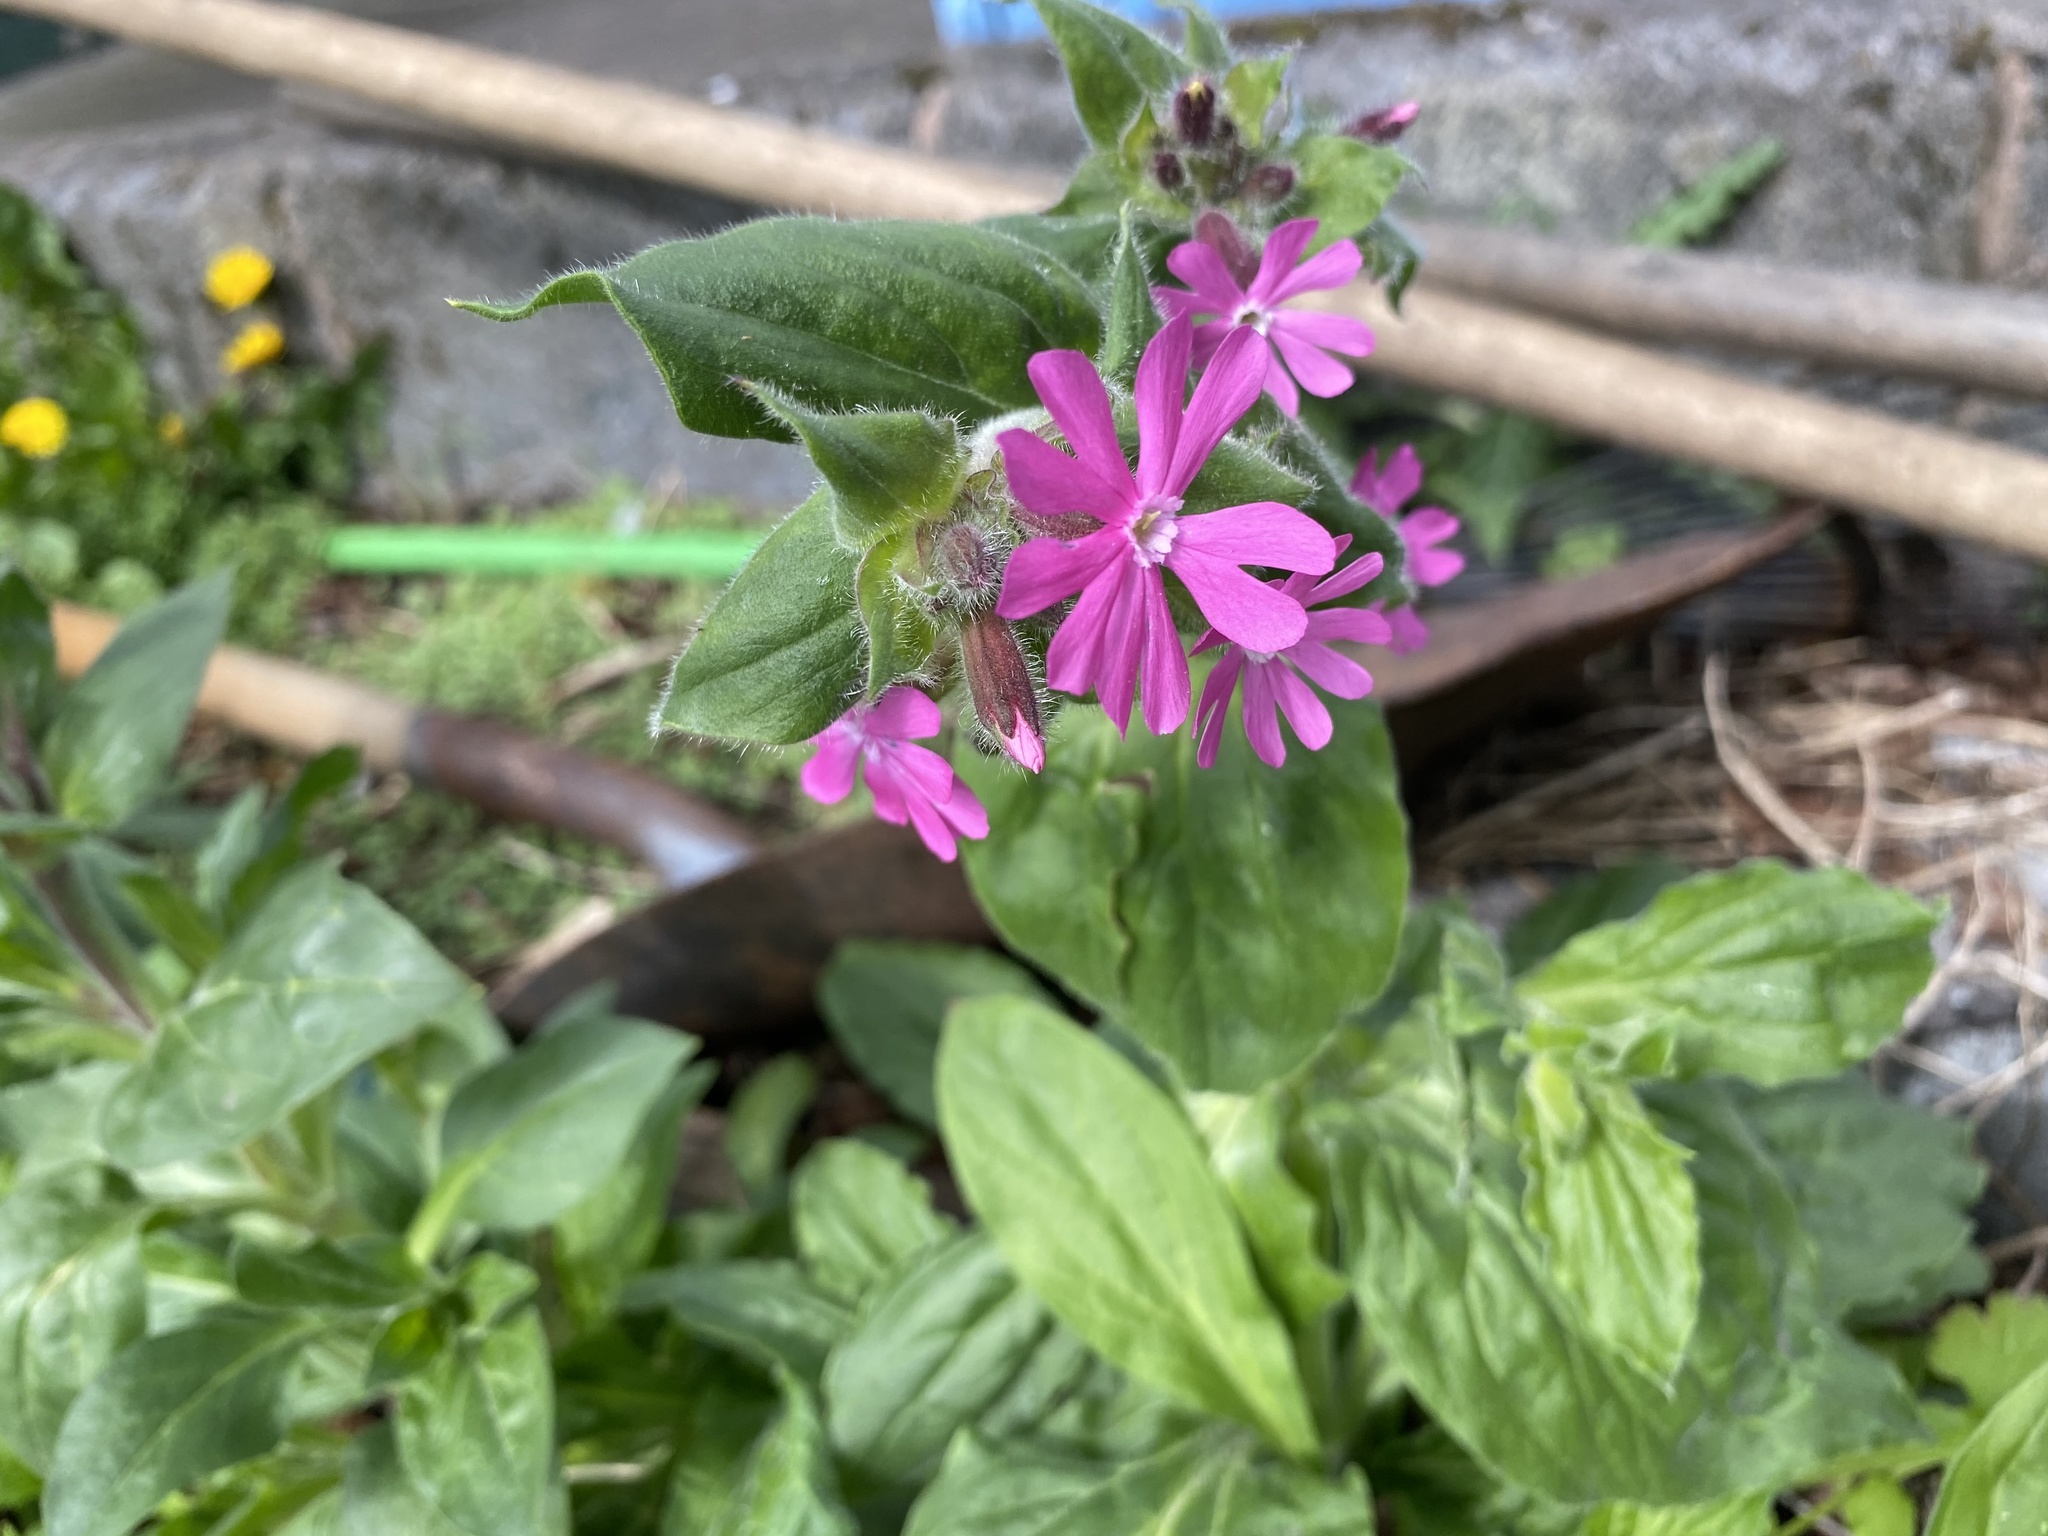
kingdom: Plantae
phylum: Tracheophyta
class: Magnoliopsida
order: Caryophyllales
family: Caryophyllaceae
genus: Silene
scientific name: Silene dioica
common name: Red campion
